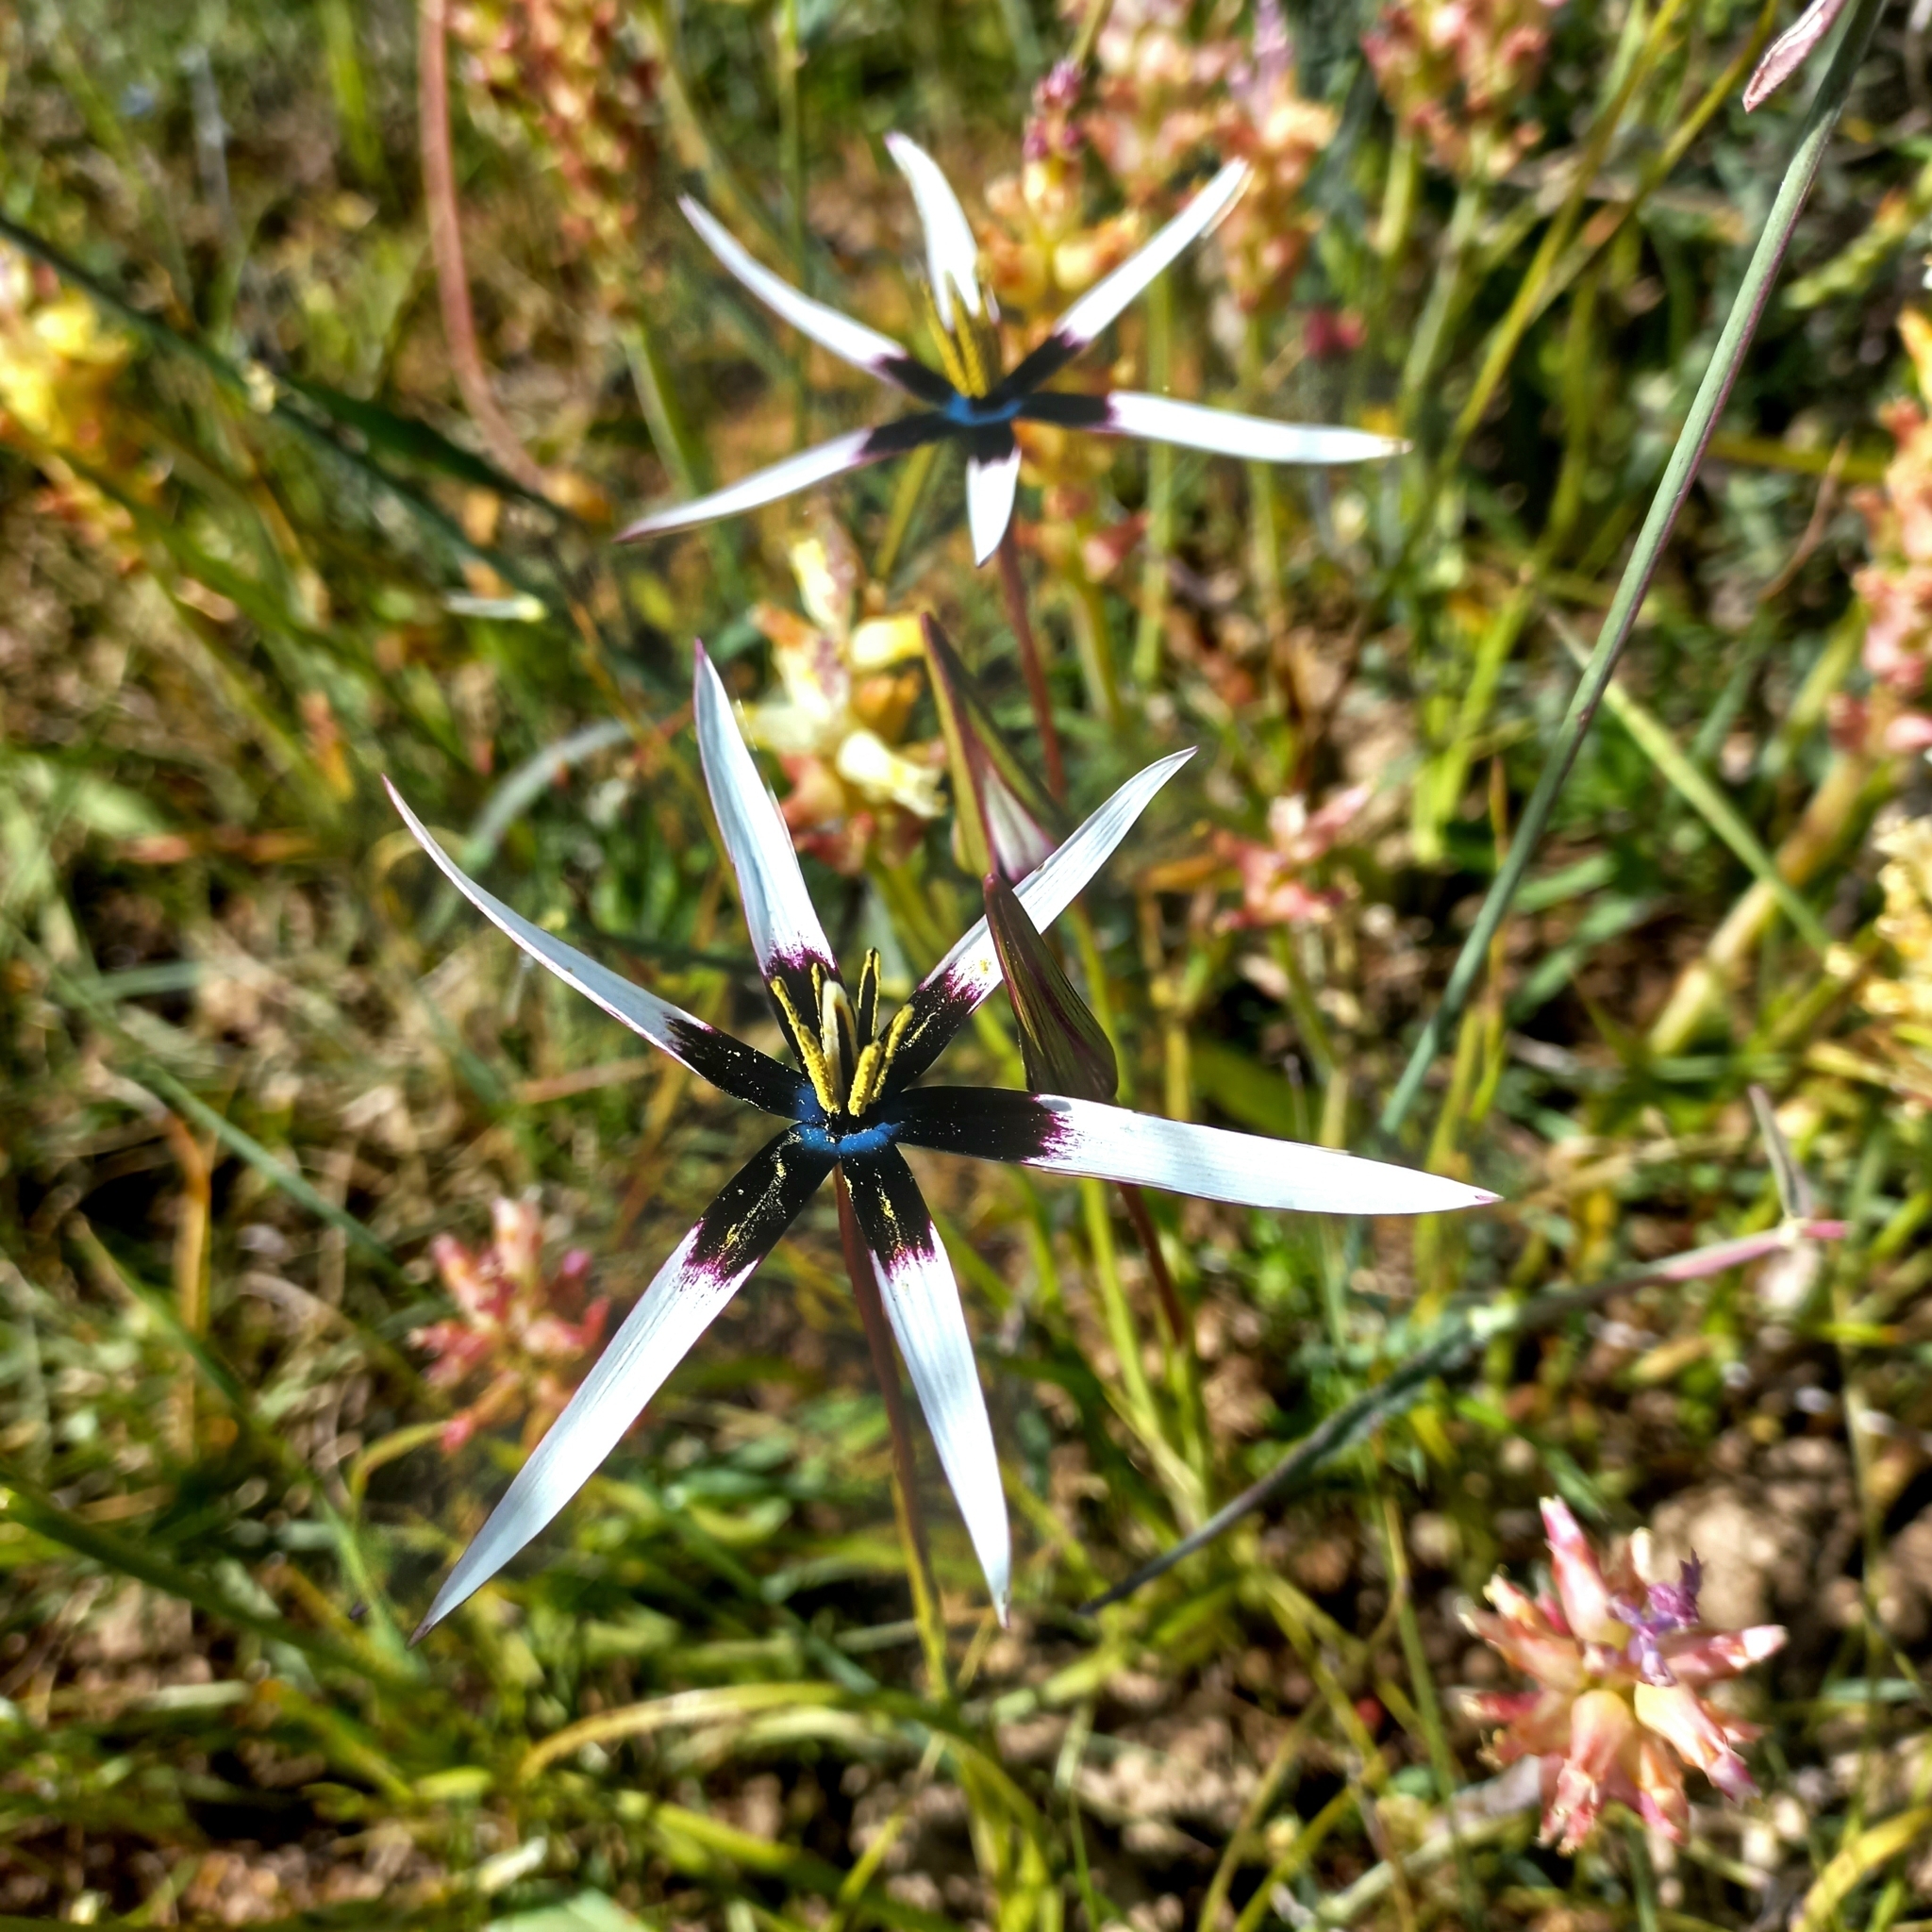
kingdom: Plantae
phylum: Tracheophyta
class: Liliopsida
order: Asparagales
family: Hypoxidaceae
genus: Pauridia
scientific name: Pauridia capensis
